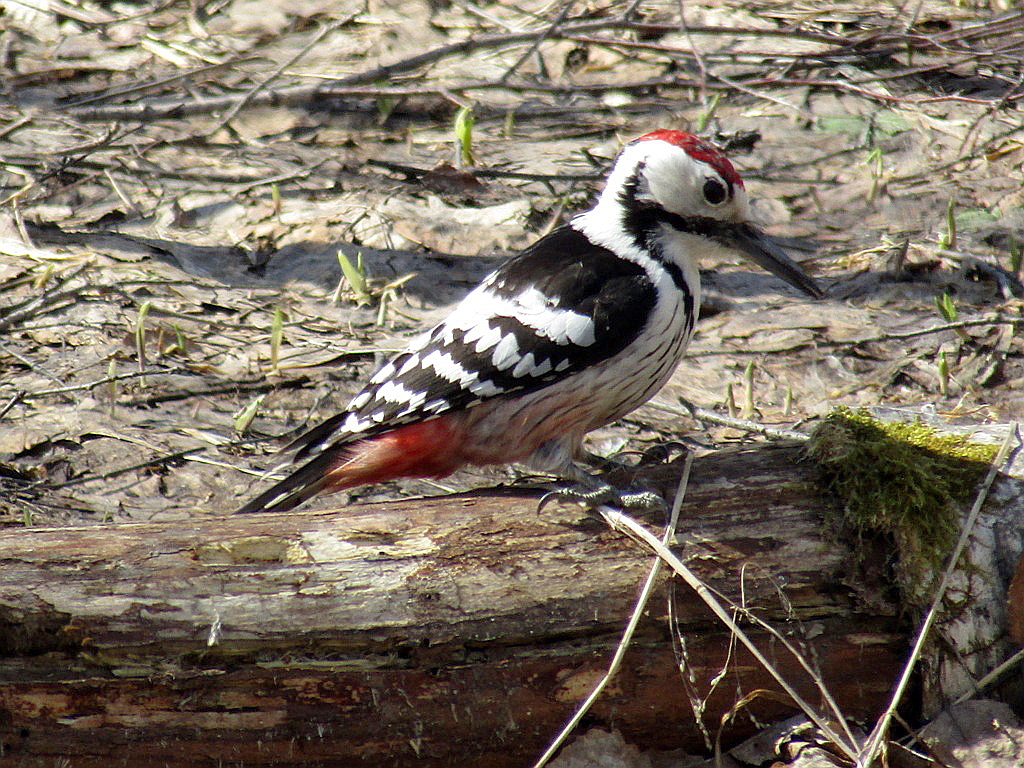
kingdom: Animalia
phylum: Chordata
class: Aves
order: Piciformes
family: Picidae
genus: Dendrocopos
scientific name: Dendrocopos leucotos
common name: White-backed woodpecker
